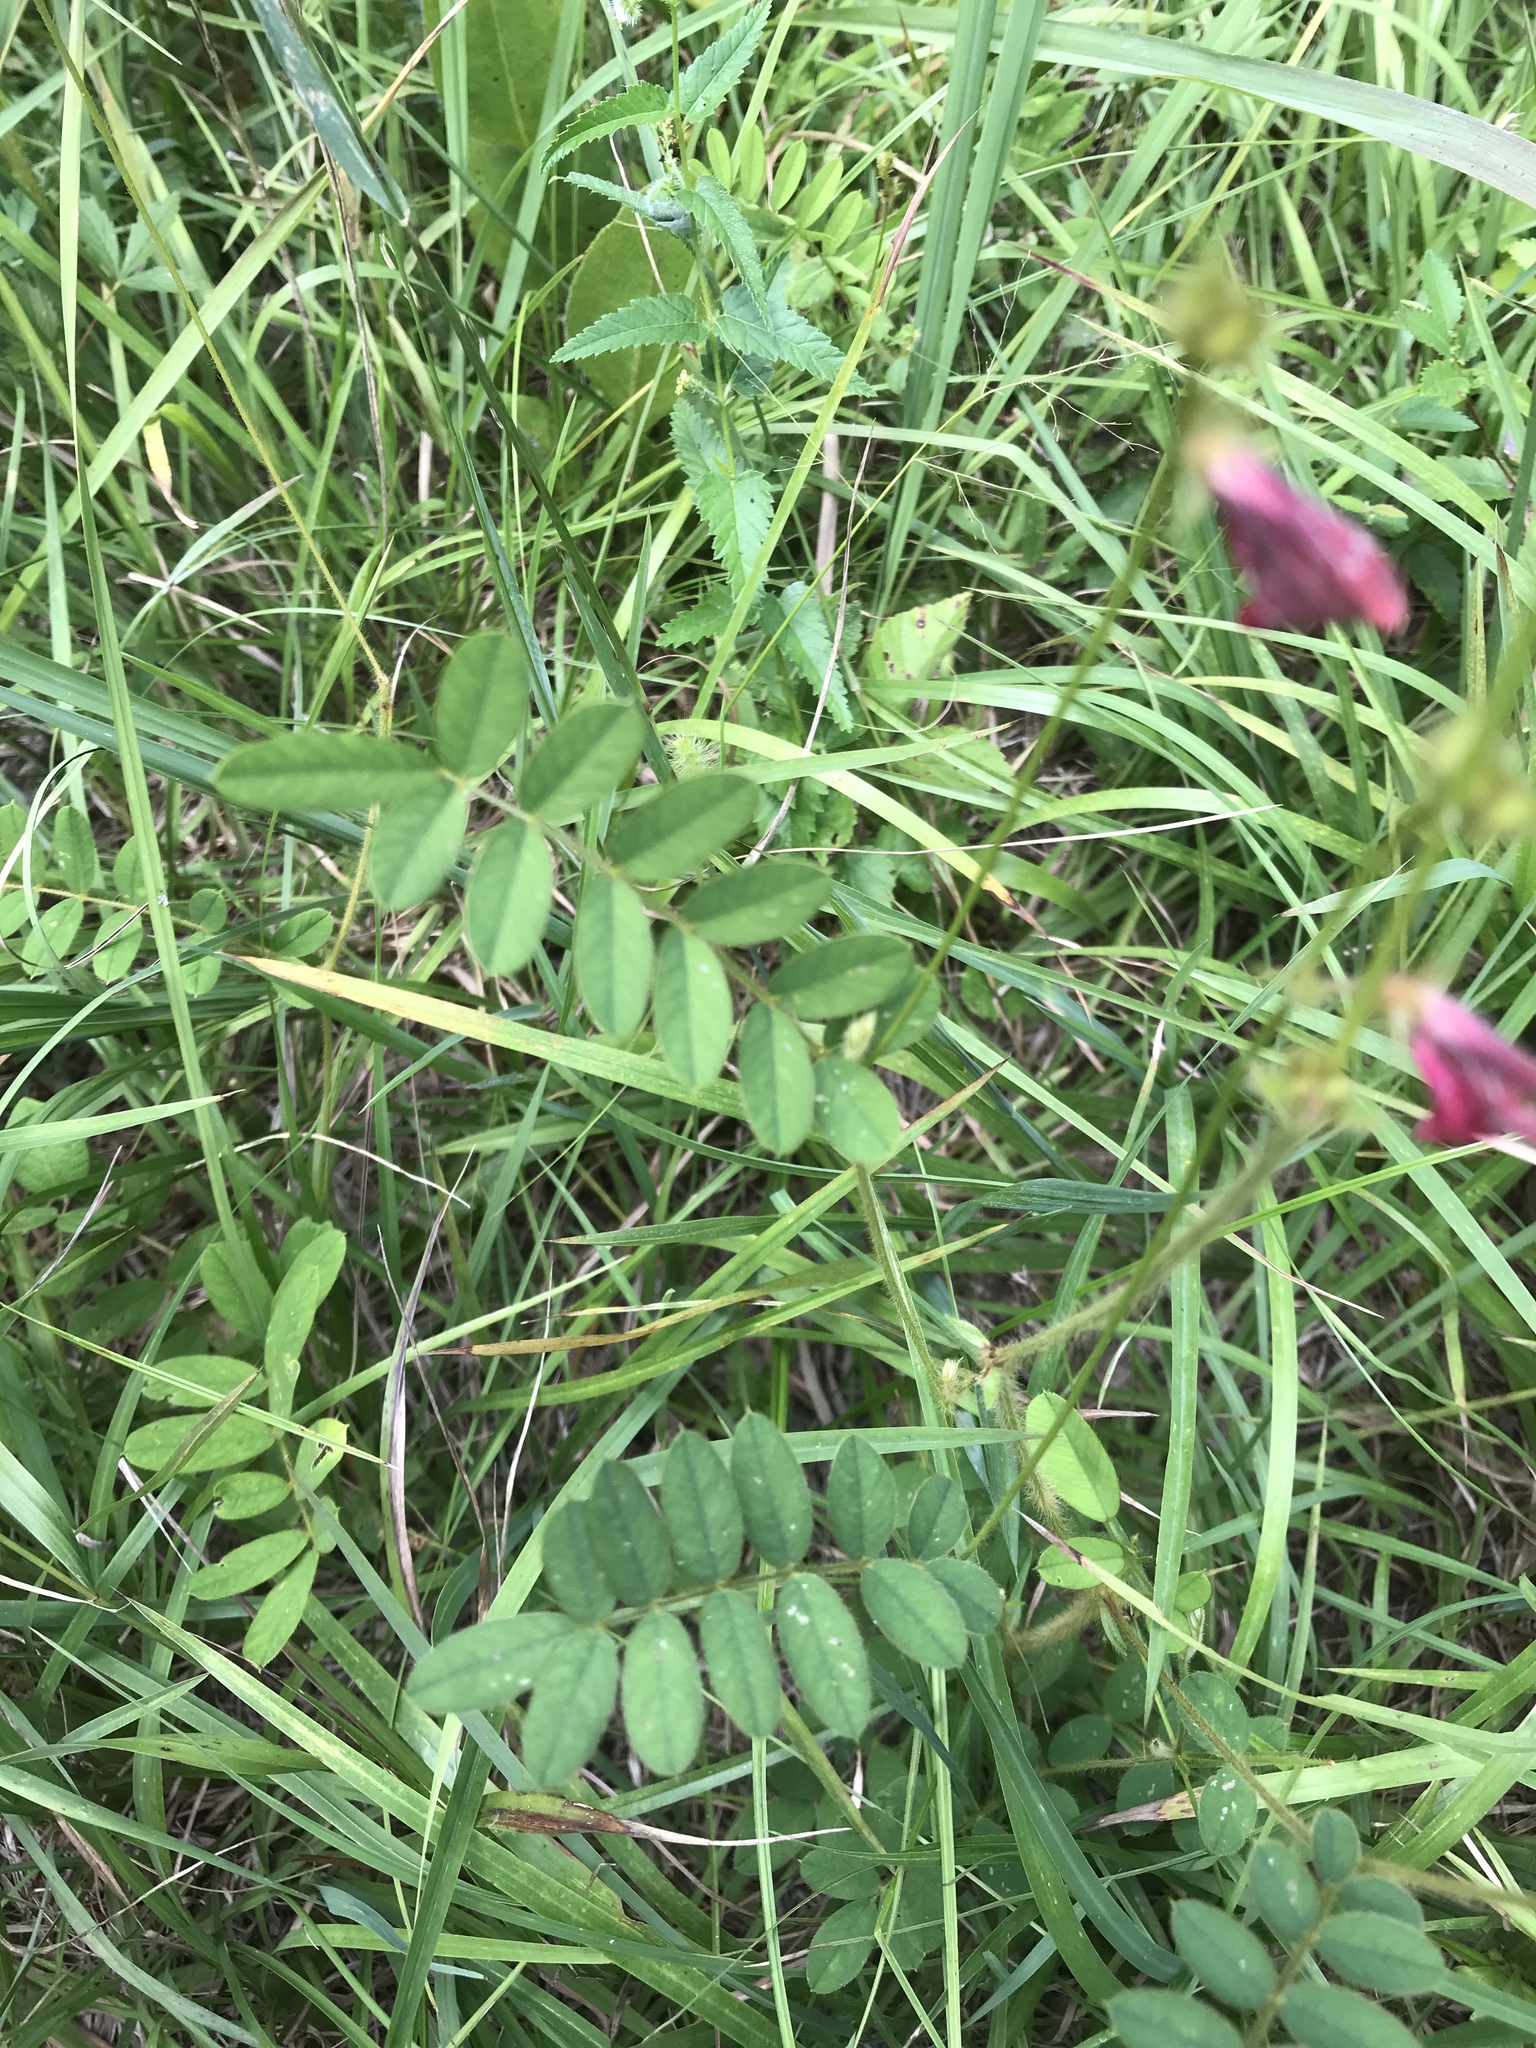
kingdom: Plantae
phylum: Tracheophyta
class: Magnoliopsida
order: Fabales
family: Fabaceae
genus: Tephrosia
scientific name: Tephrosia spicata
